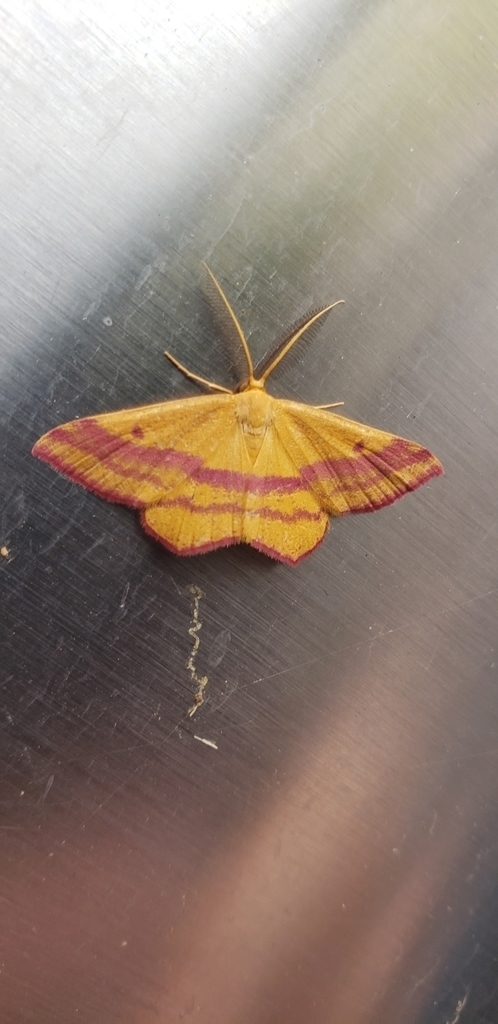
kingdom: Animalia
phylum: Arthropoda
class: Insecta
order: Lepidoptera
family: Geometridae
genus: Haematopis
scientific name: Haematopis grataria
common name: Chickweed geometer
